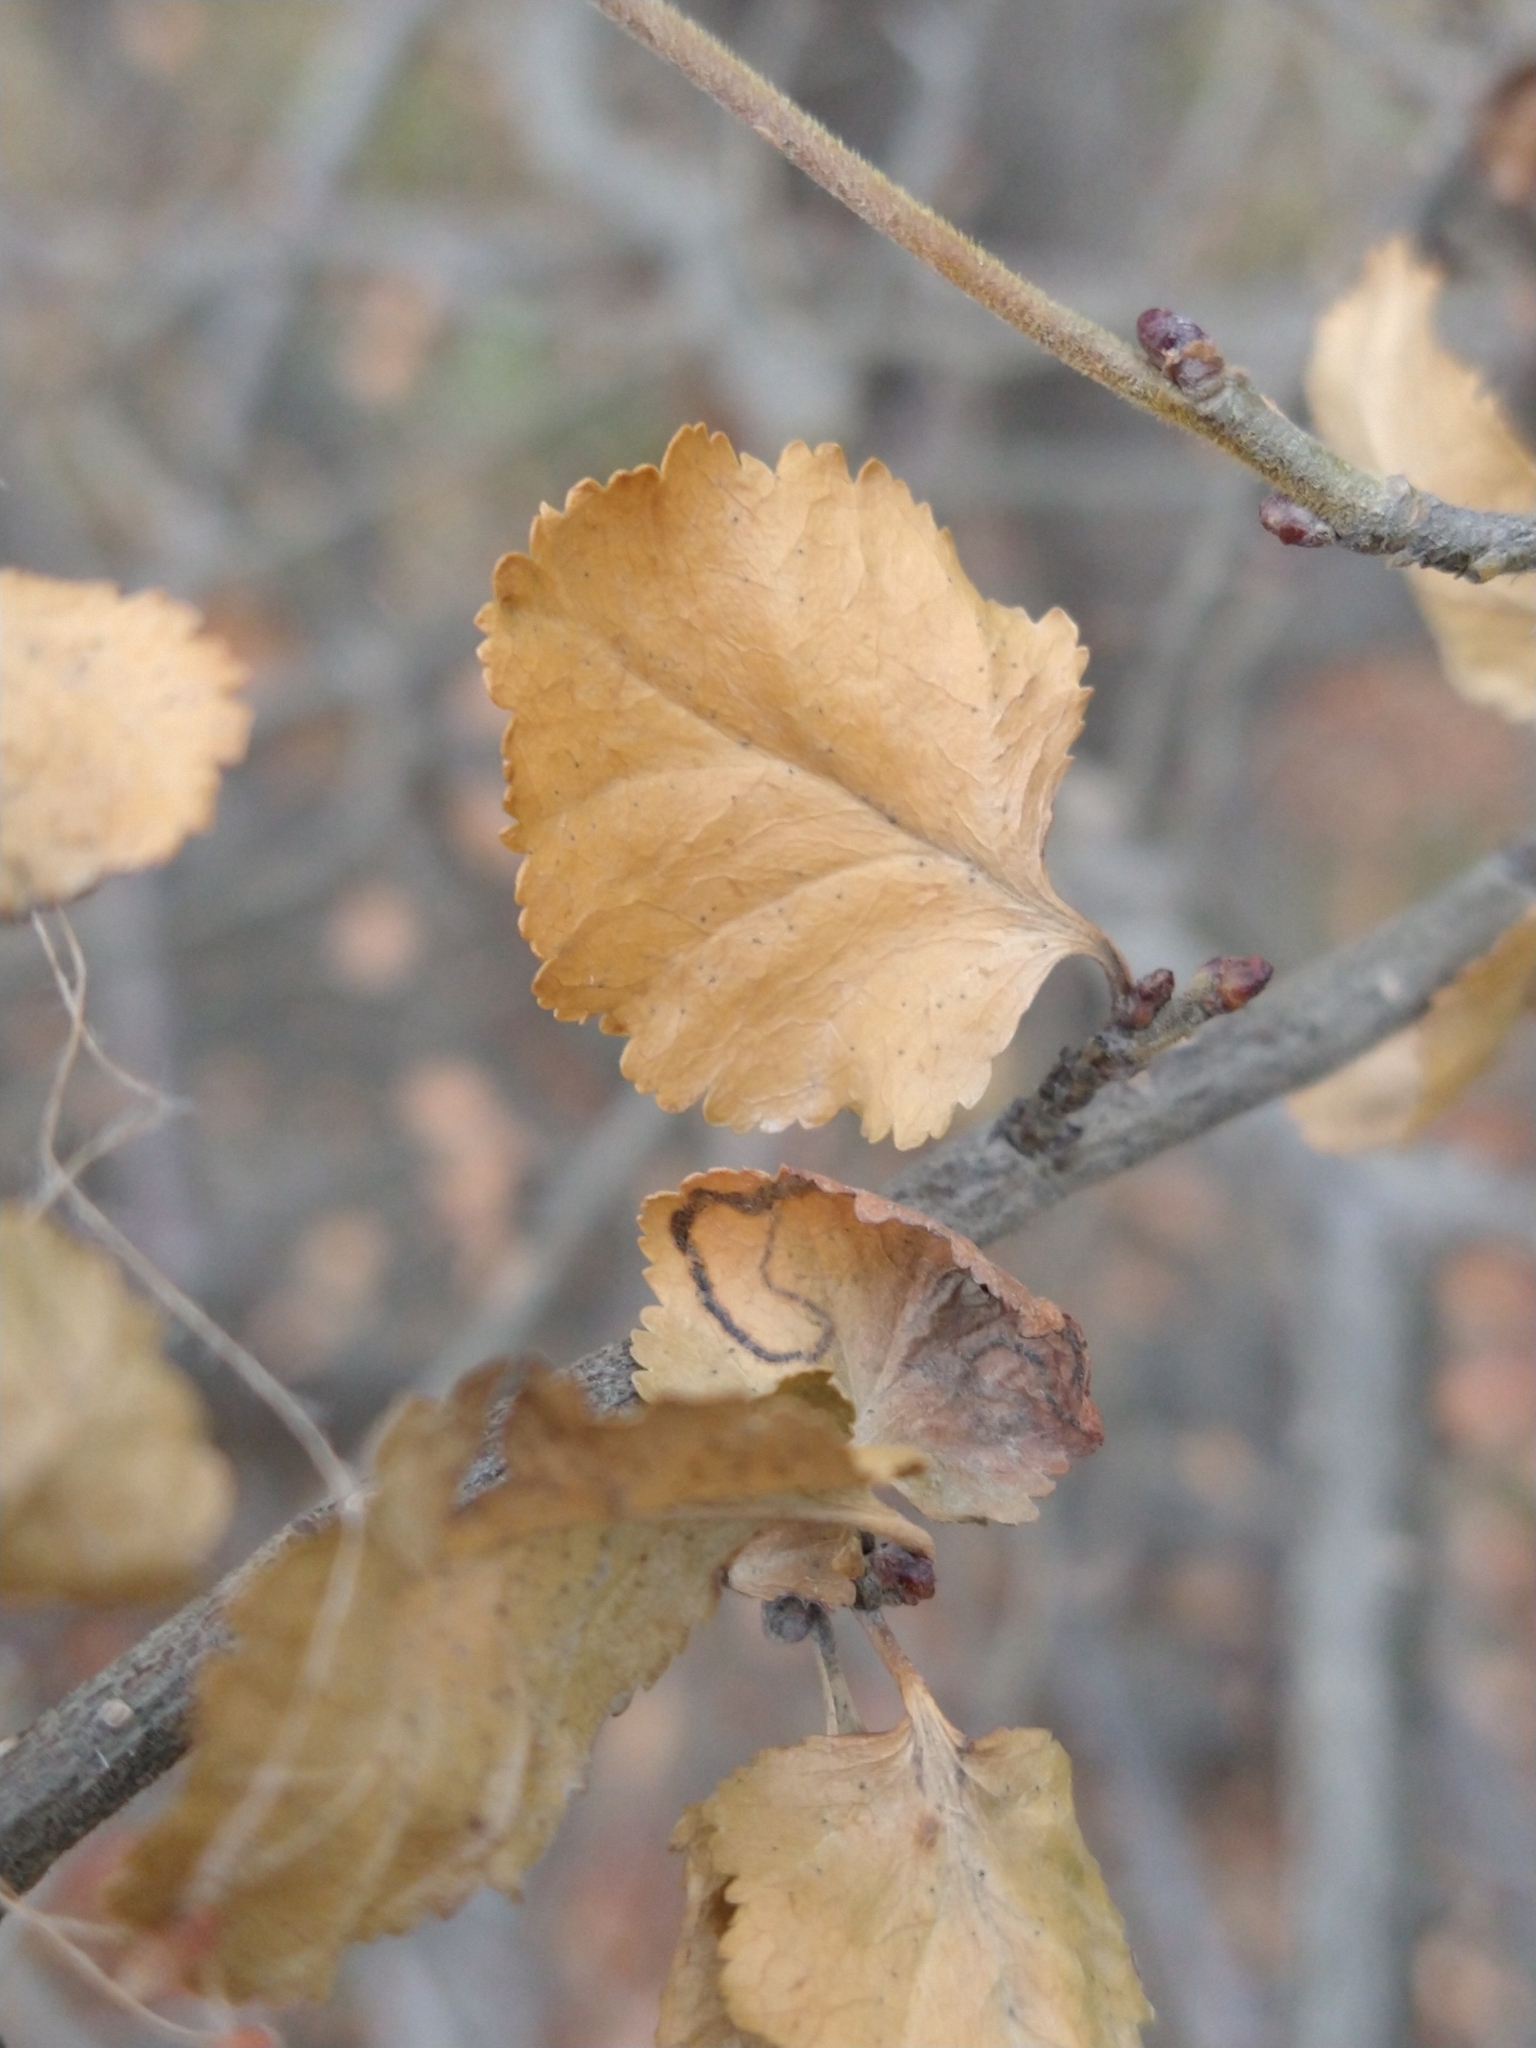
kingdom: Plantae
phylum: Tracheophyta
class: Magnoliopsida
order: Fagales
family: Nothofagaceae
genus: Nothofagus
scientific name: Nothofagus antarctica
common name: Antarctic beech
